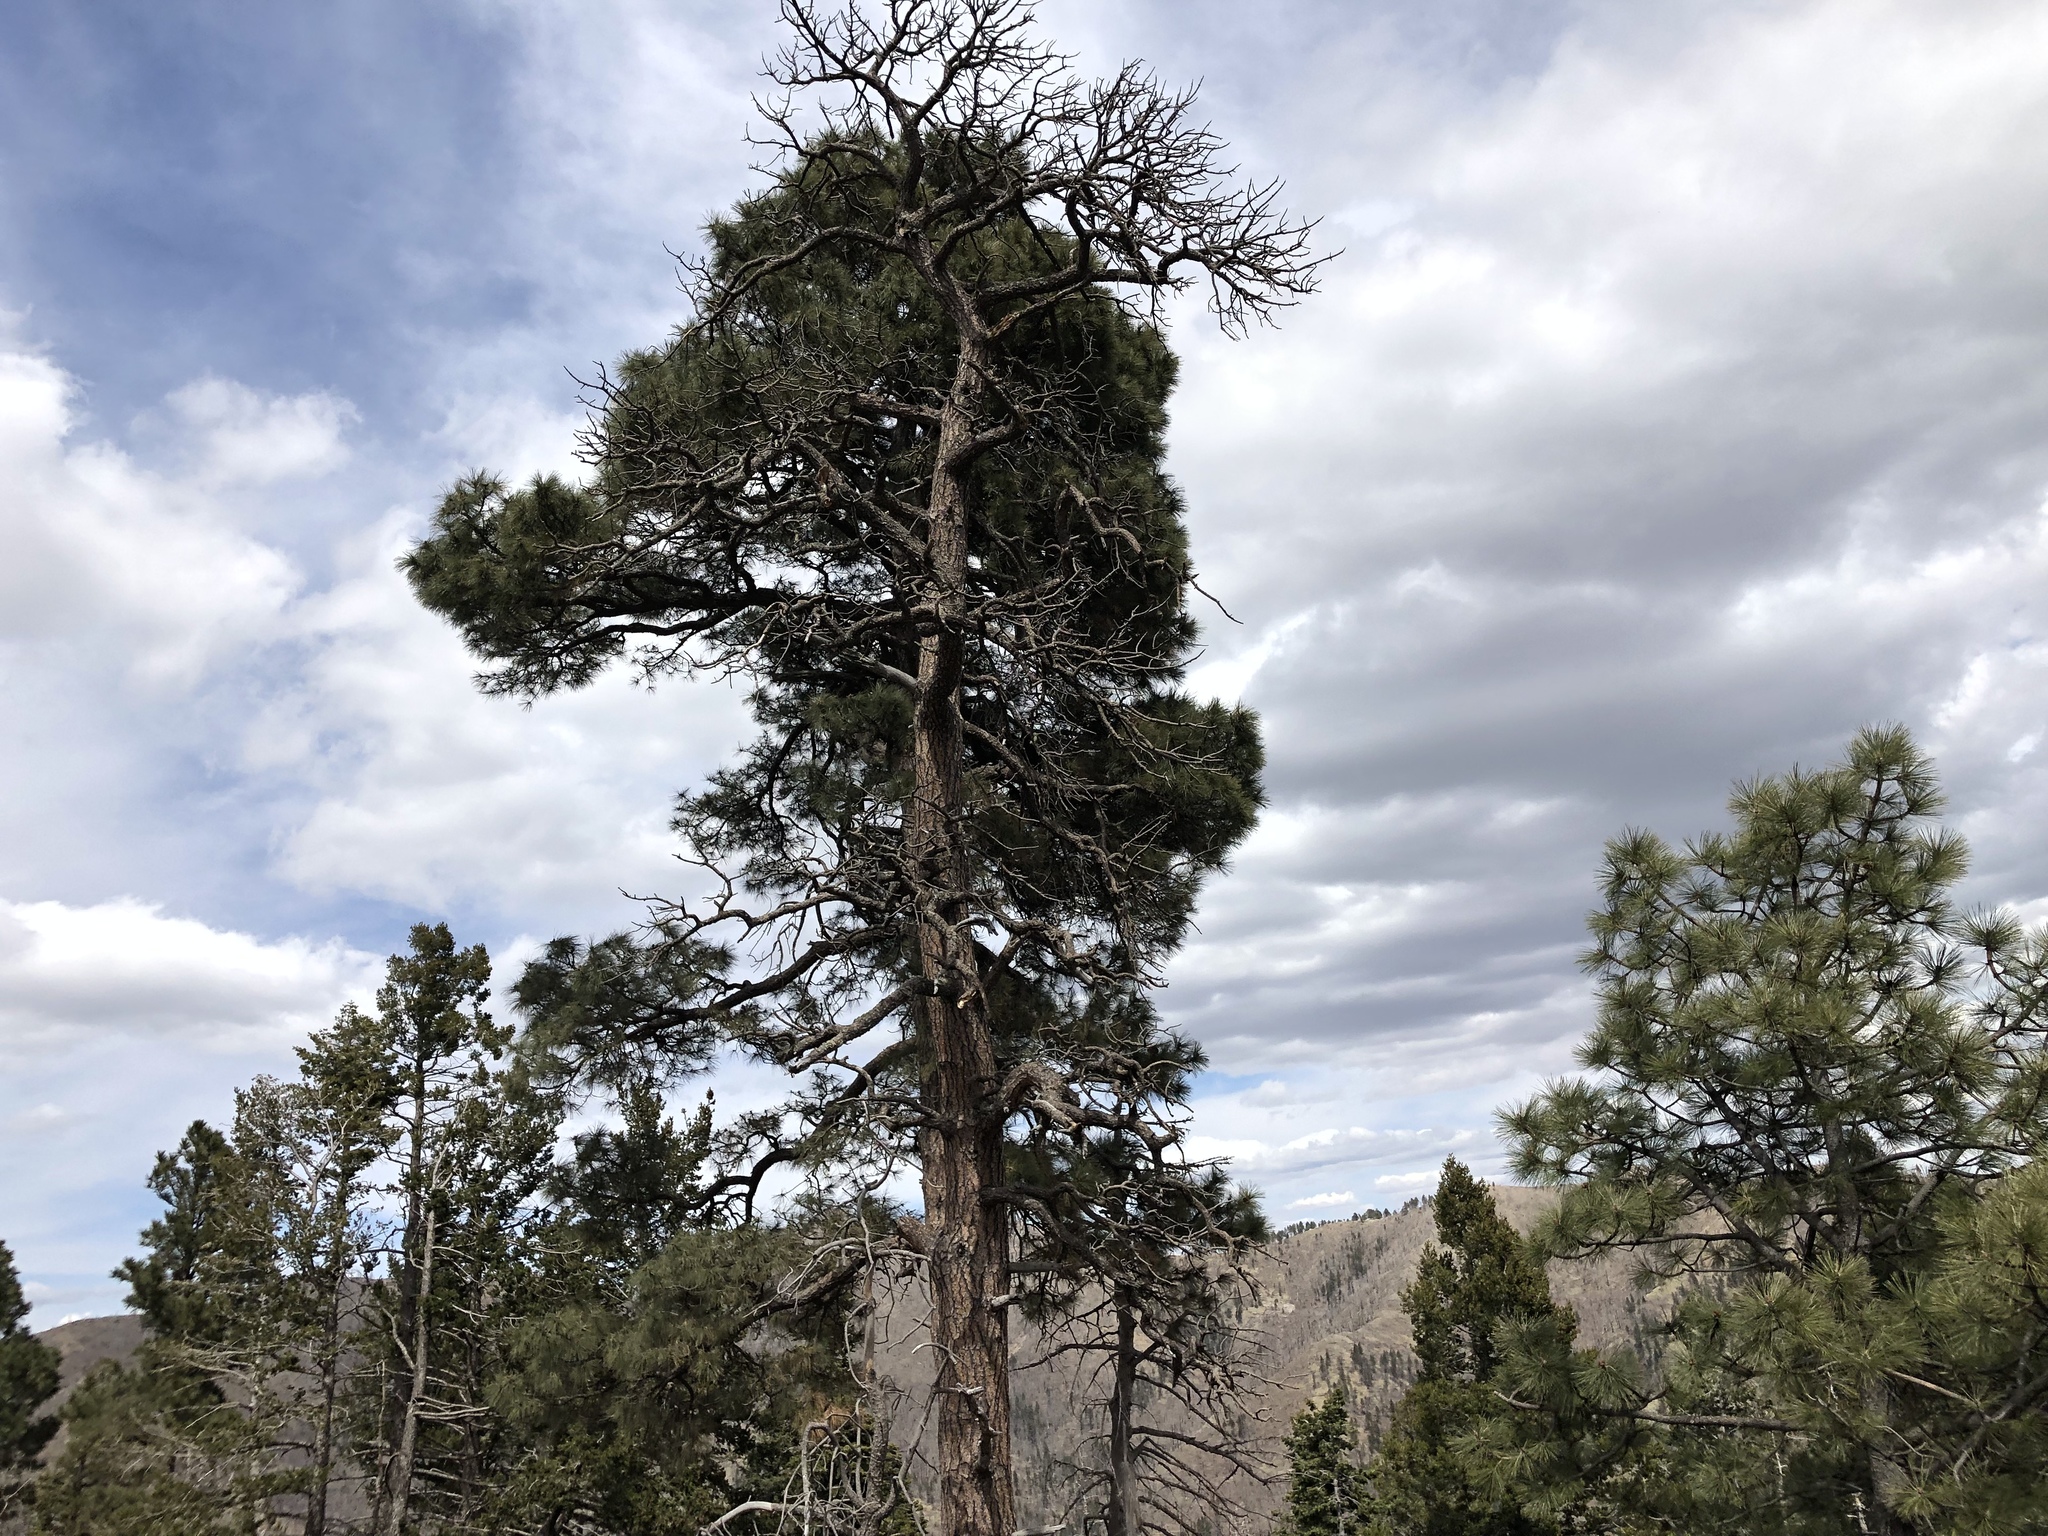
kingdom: Plantae
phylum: Tracheophyta
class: Pinopsida
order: Pinales
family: Pinaceae
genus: Pinus
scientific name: Pinus ponderosa
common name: Western yellow-pine
